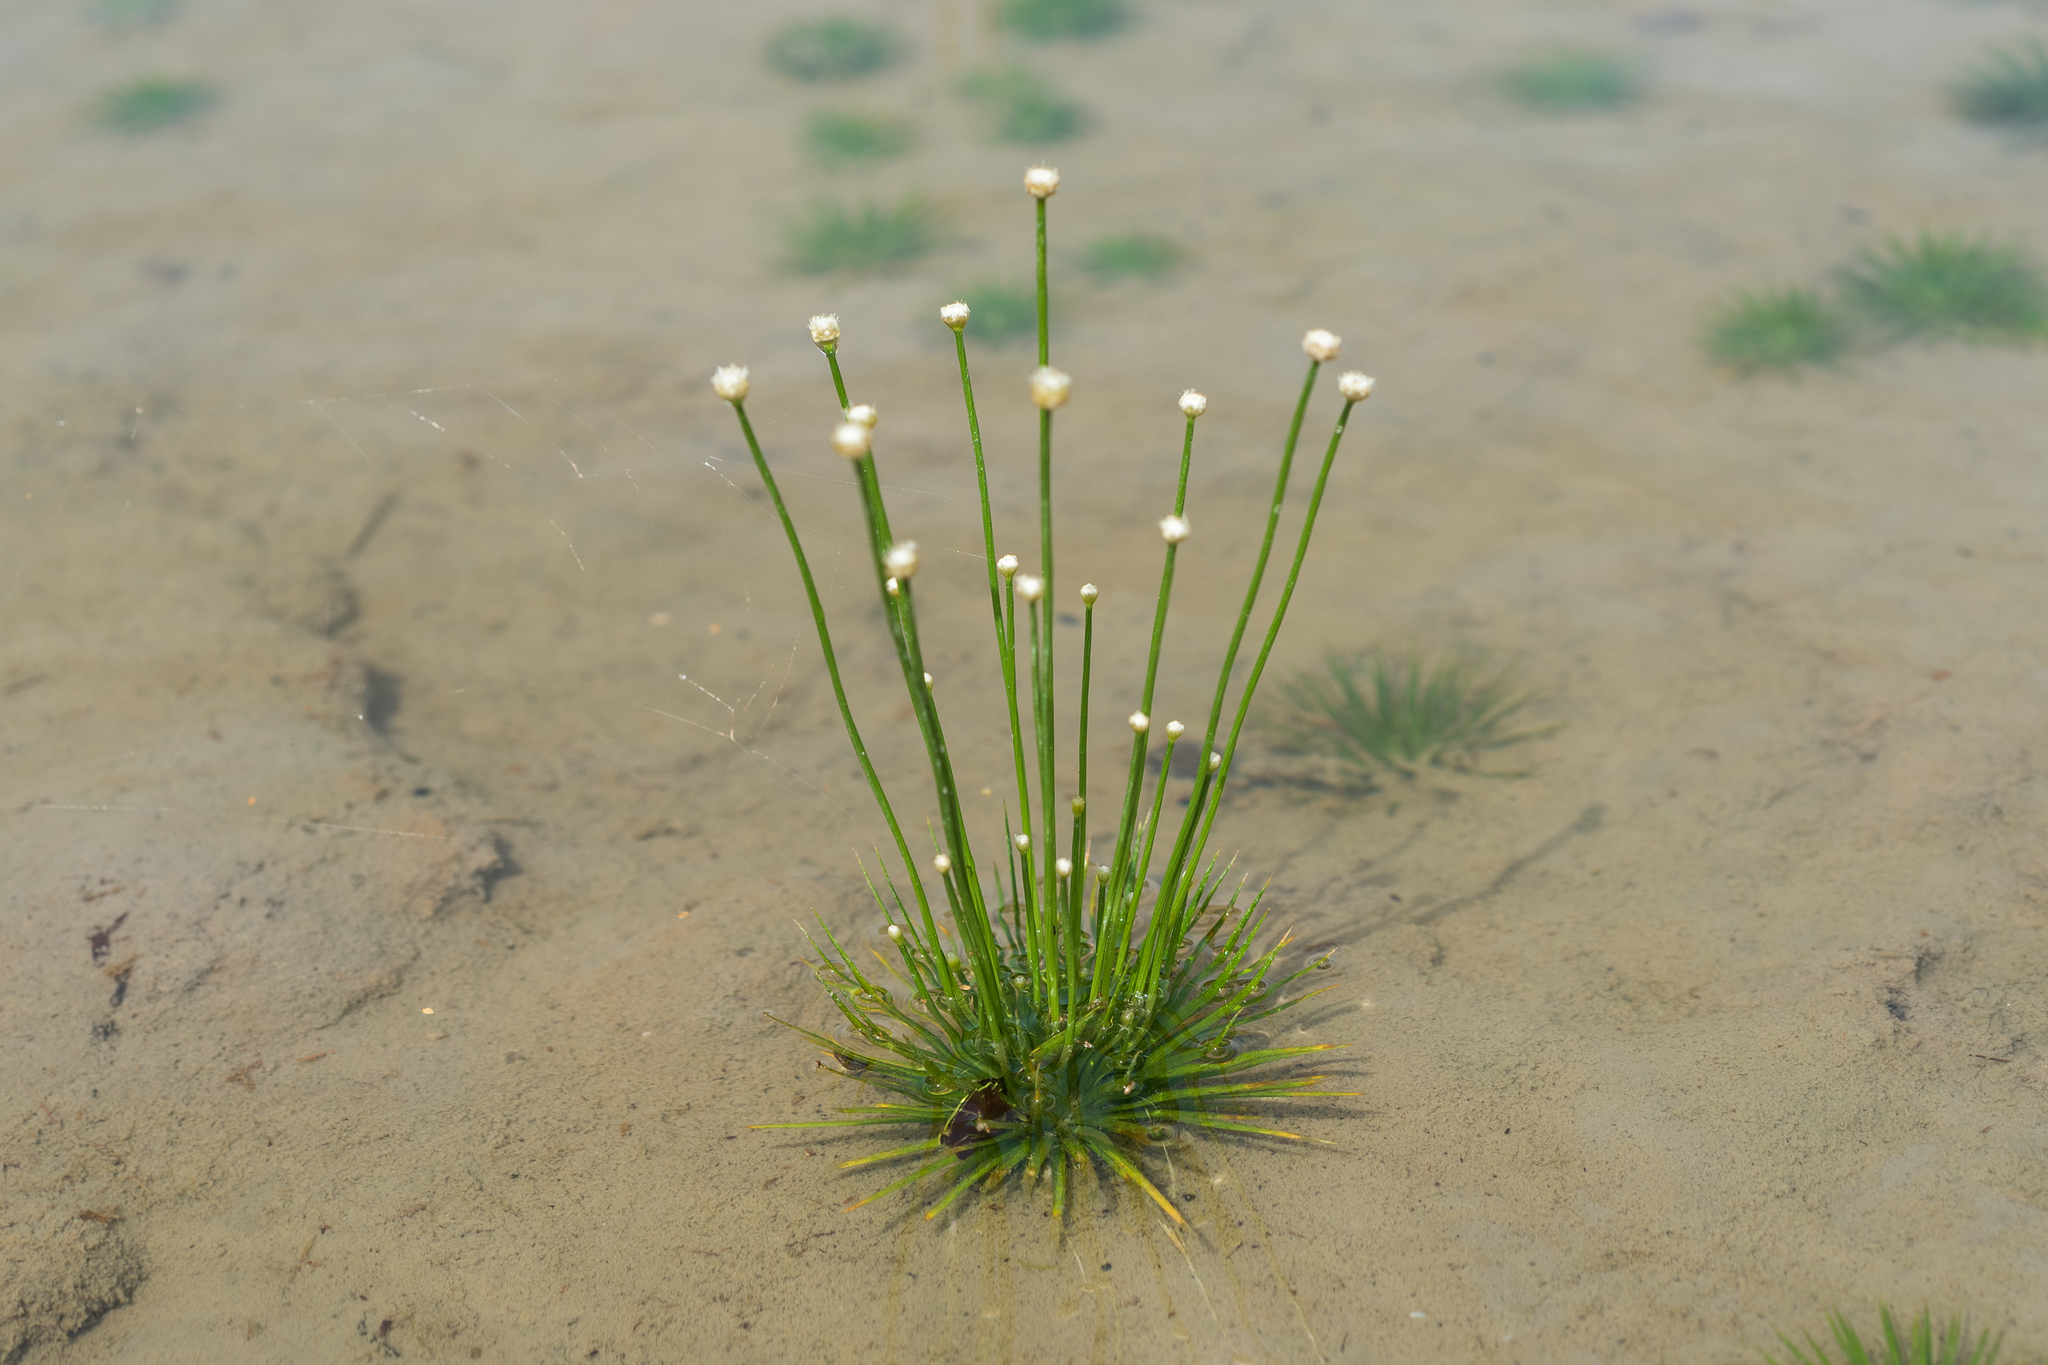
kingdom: Plantae
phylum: Tracheophyta
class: Liliopsida
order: Poales
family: Eriocaulaceae
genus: Eriocaulon
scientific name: Eriocaulon cinereum
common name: Ashy pipewort
